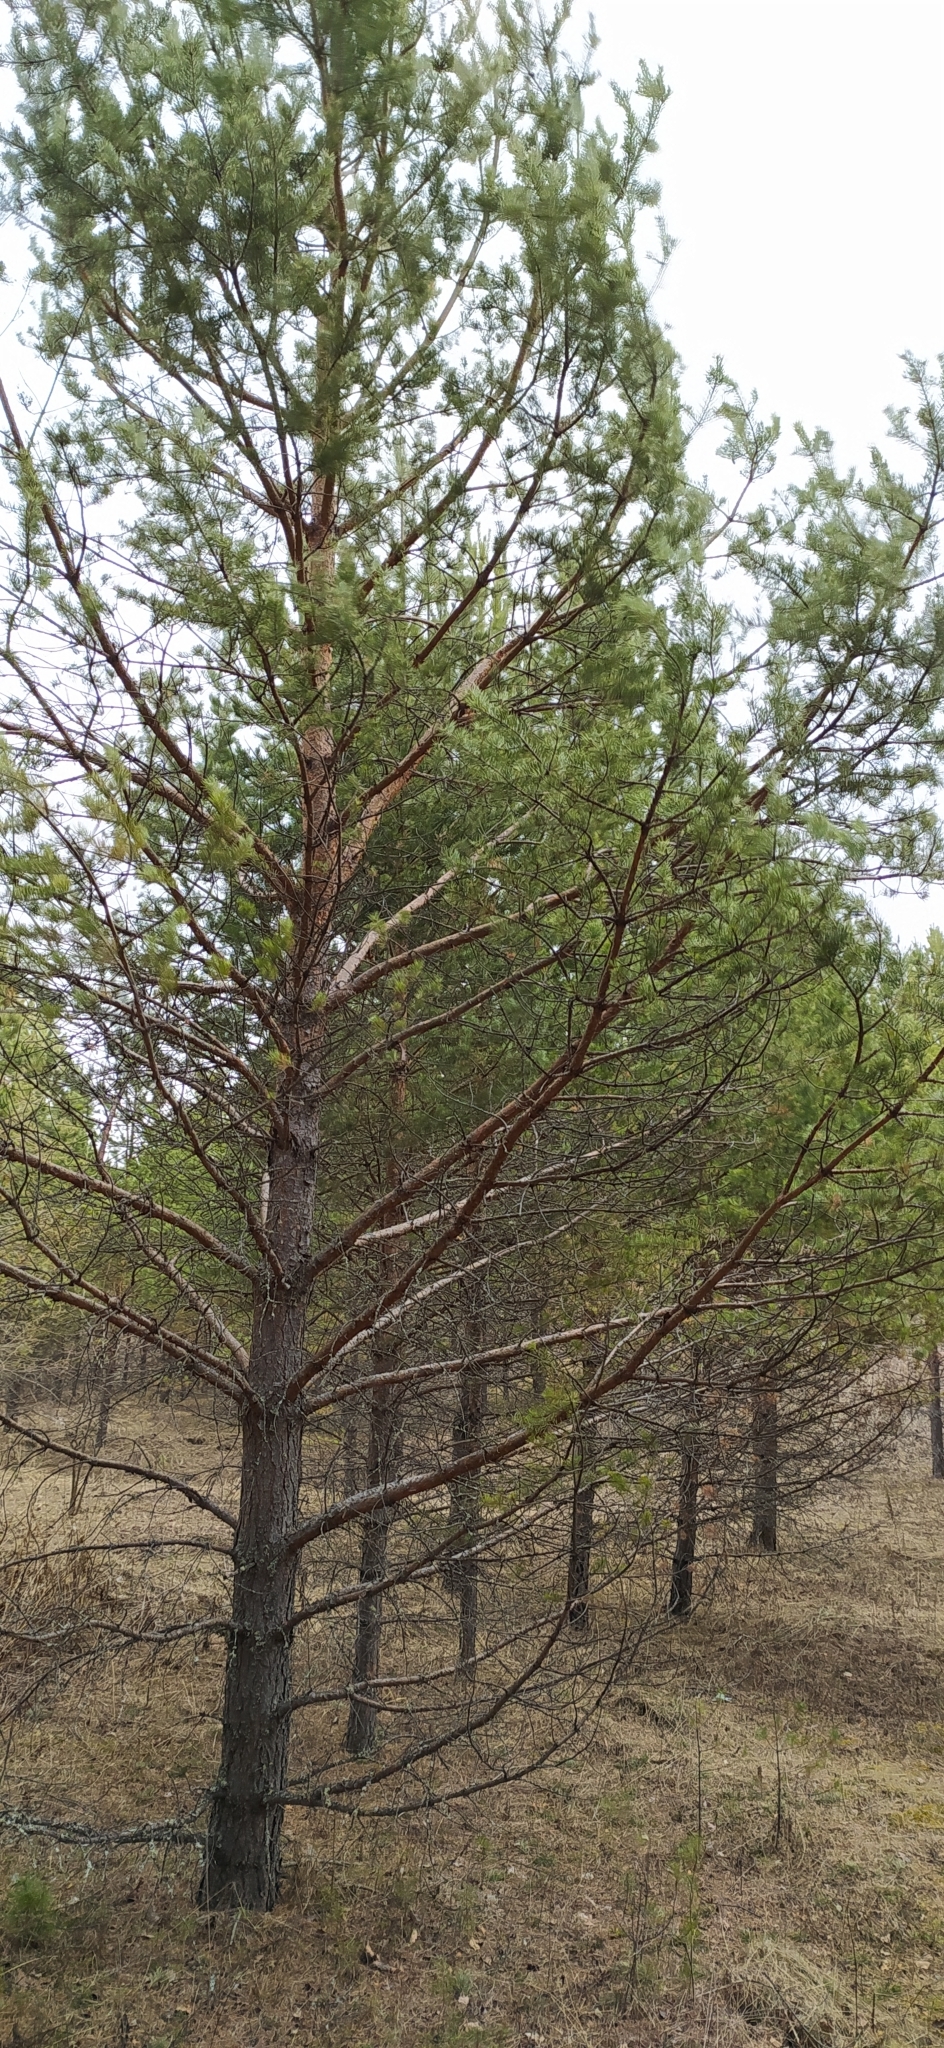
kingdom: Plantae
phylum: Tracheophyta
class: Pinopsida
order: Pinales
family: Pinaceae
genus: Pinus
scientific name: Pinus sylvestris
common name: Scots pine
